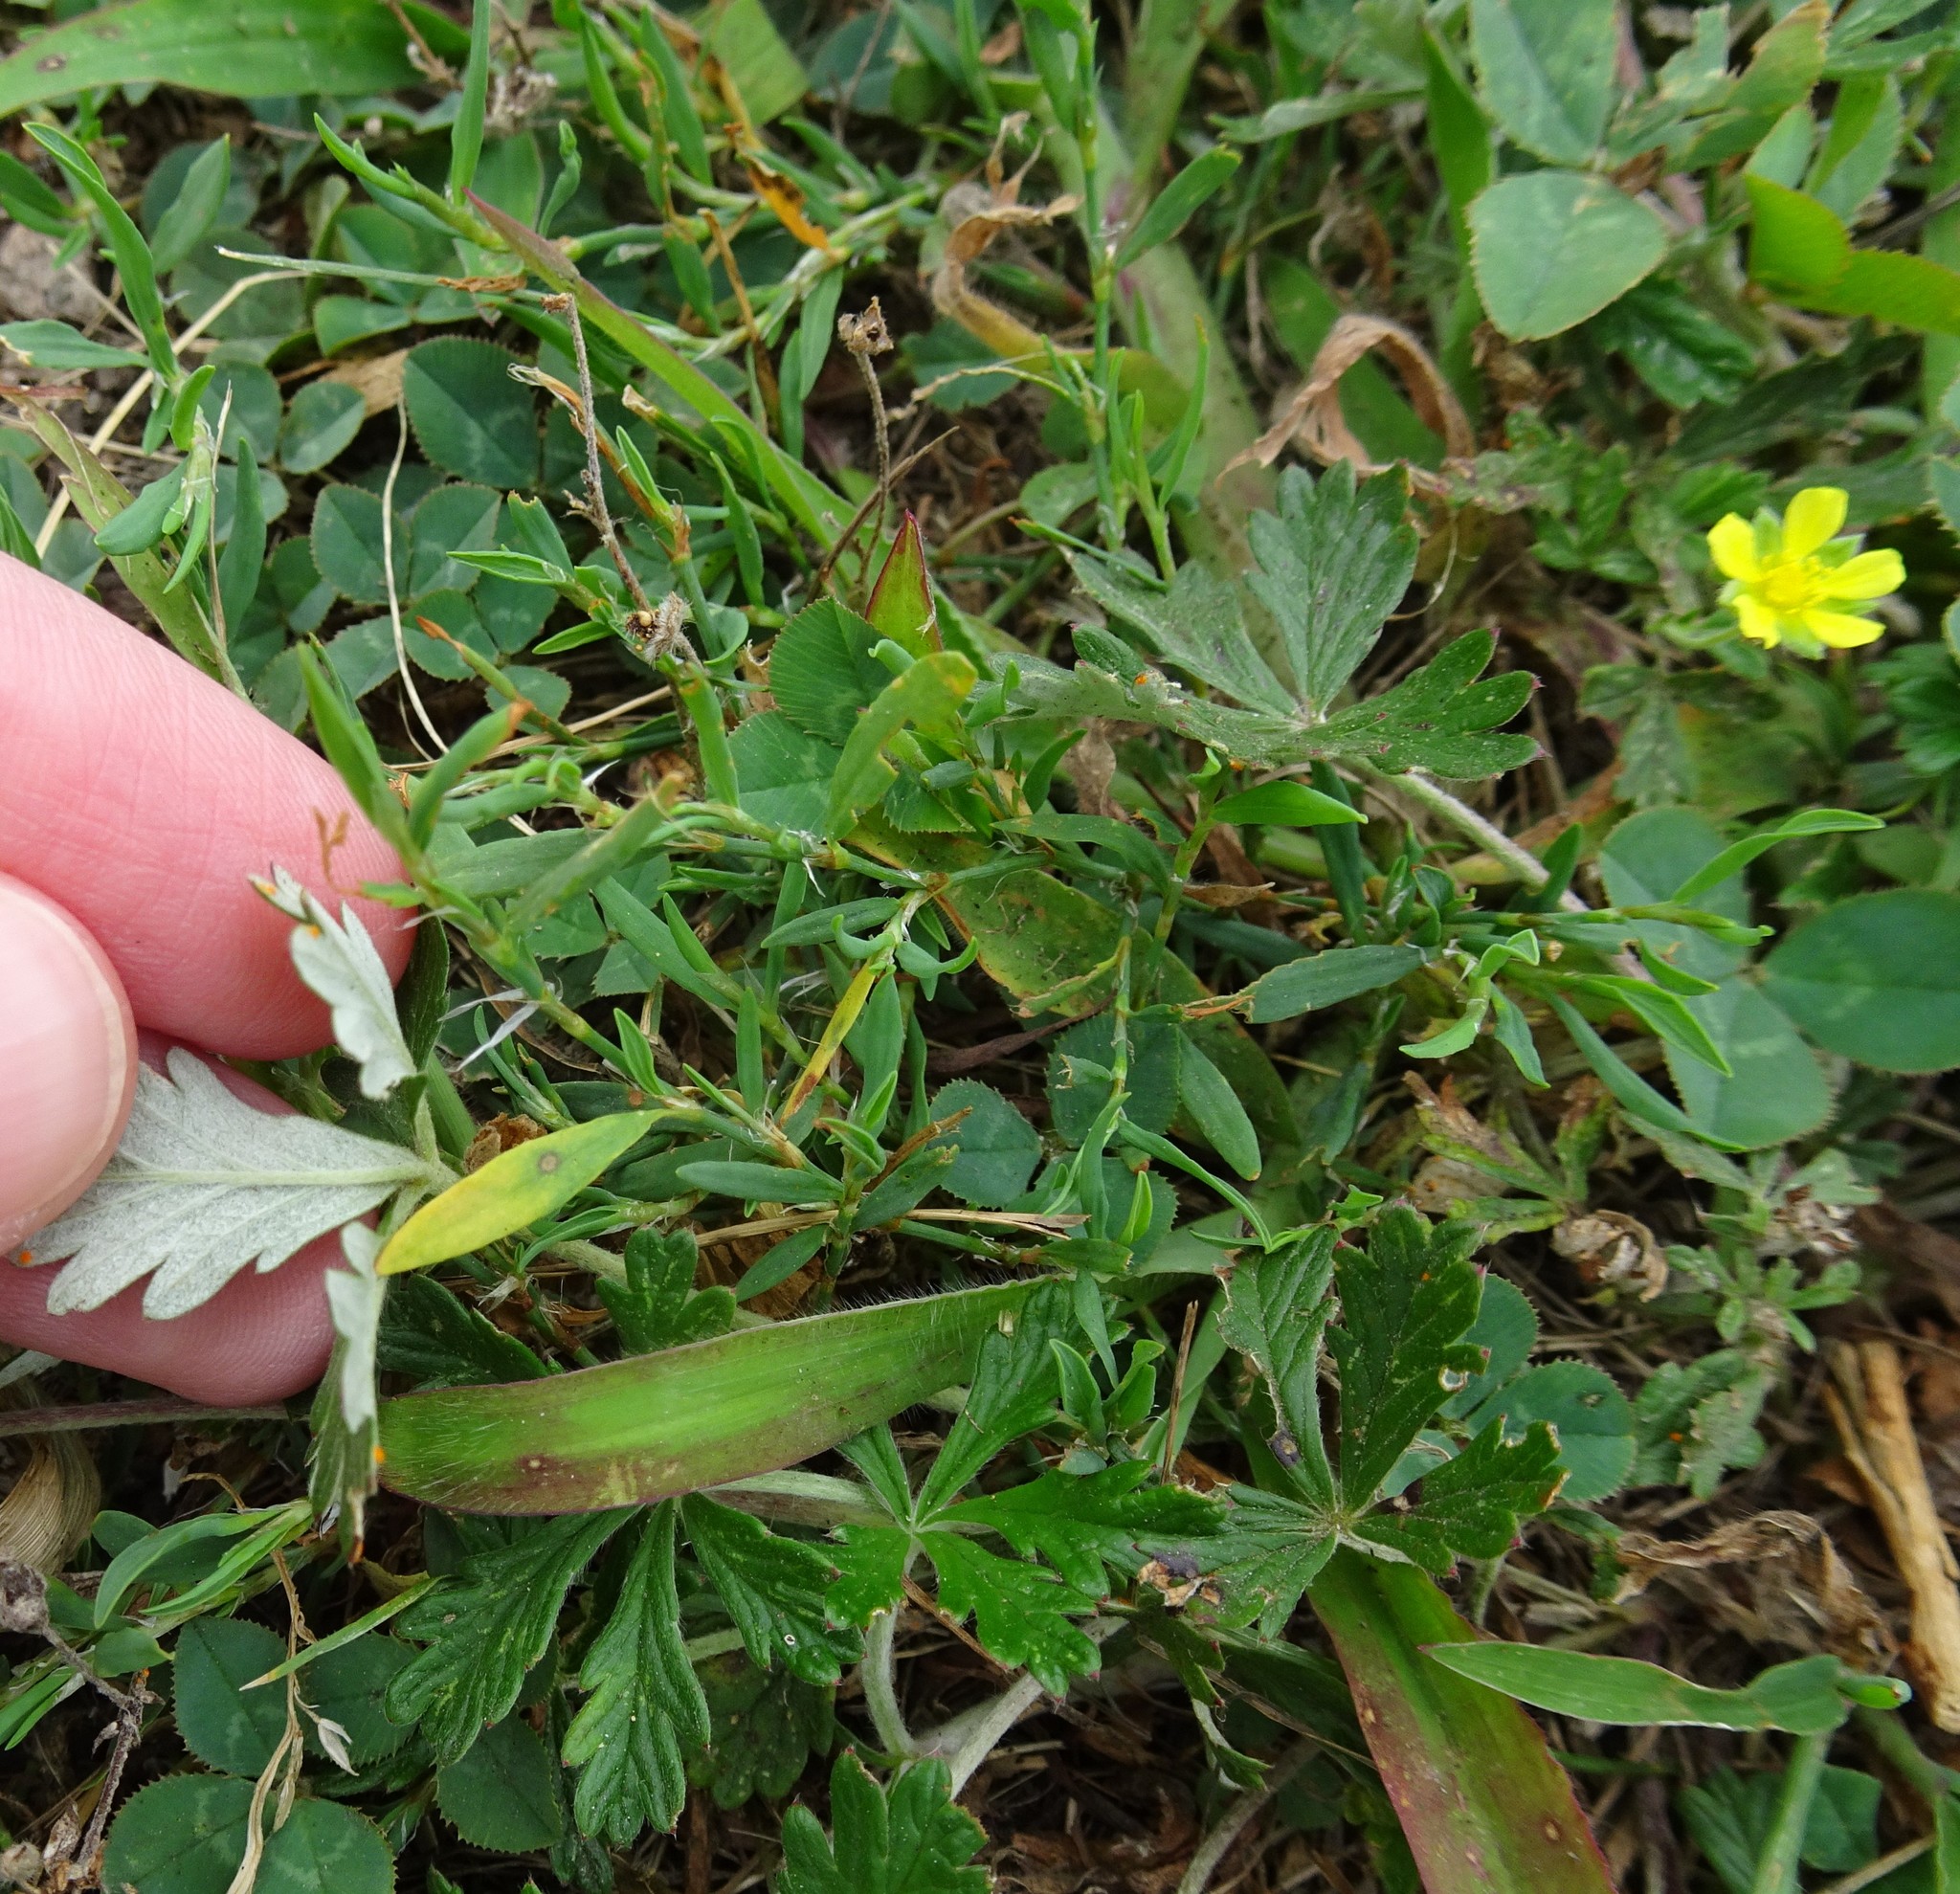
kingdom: Plantae
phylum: Tracheophyta
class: Magnoliopsida
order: Rosales
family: Rosaceae
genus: Potentilla
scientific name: Potentilla argentea
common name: Hoary cinquefoil
